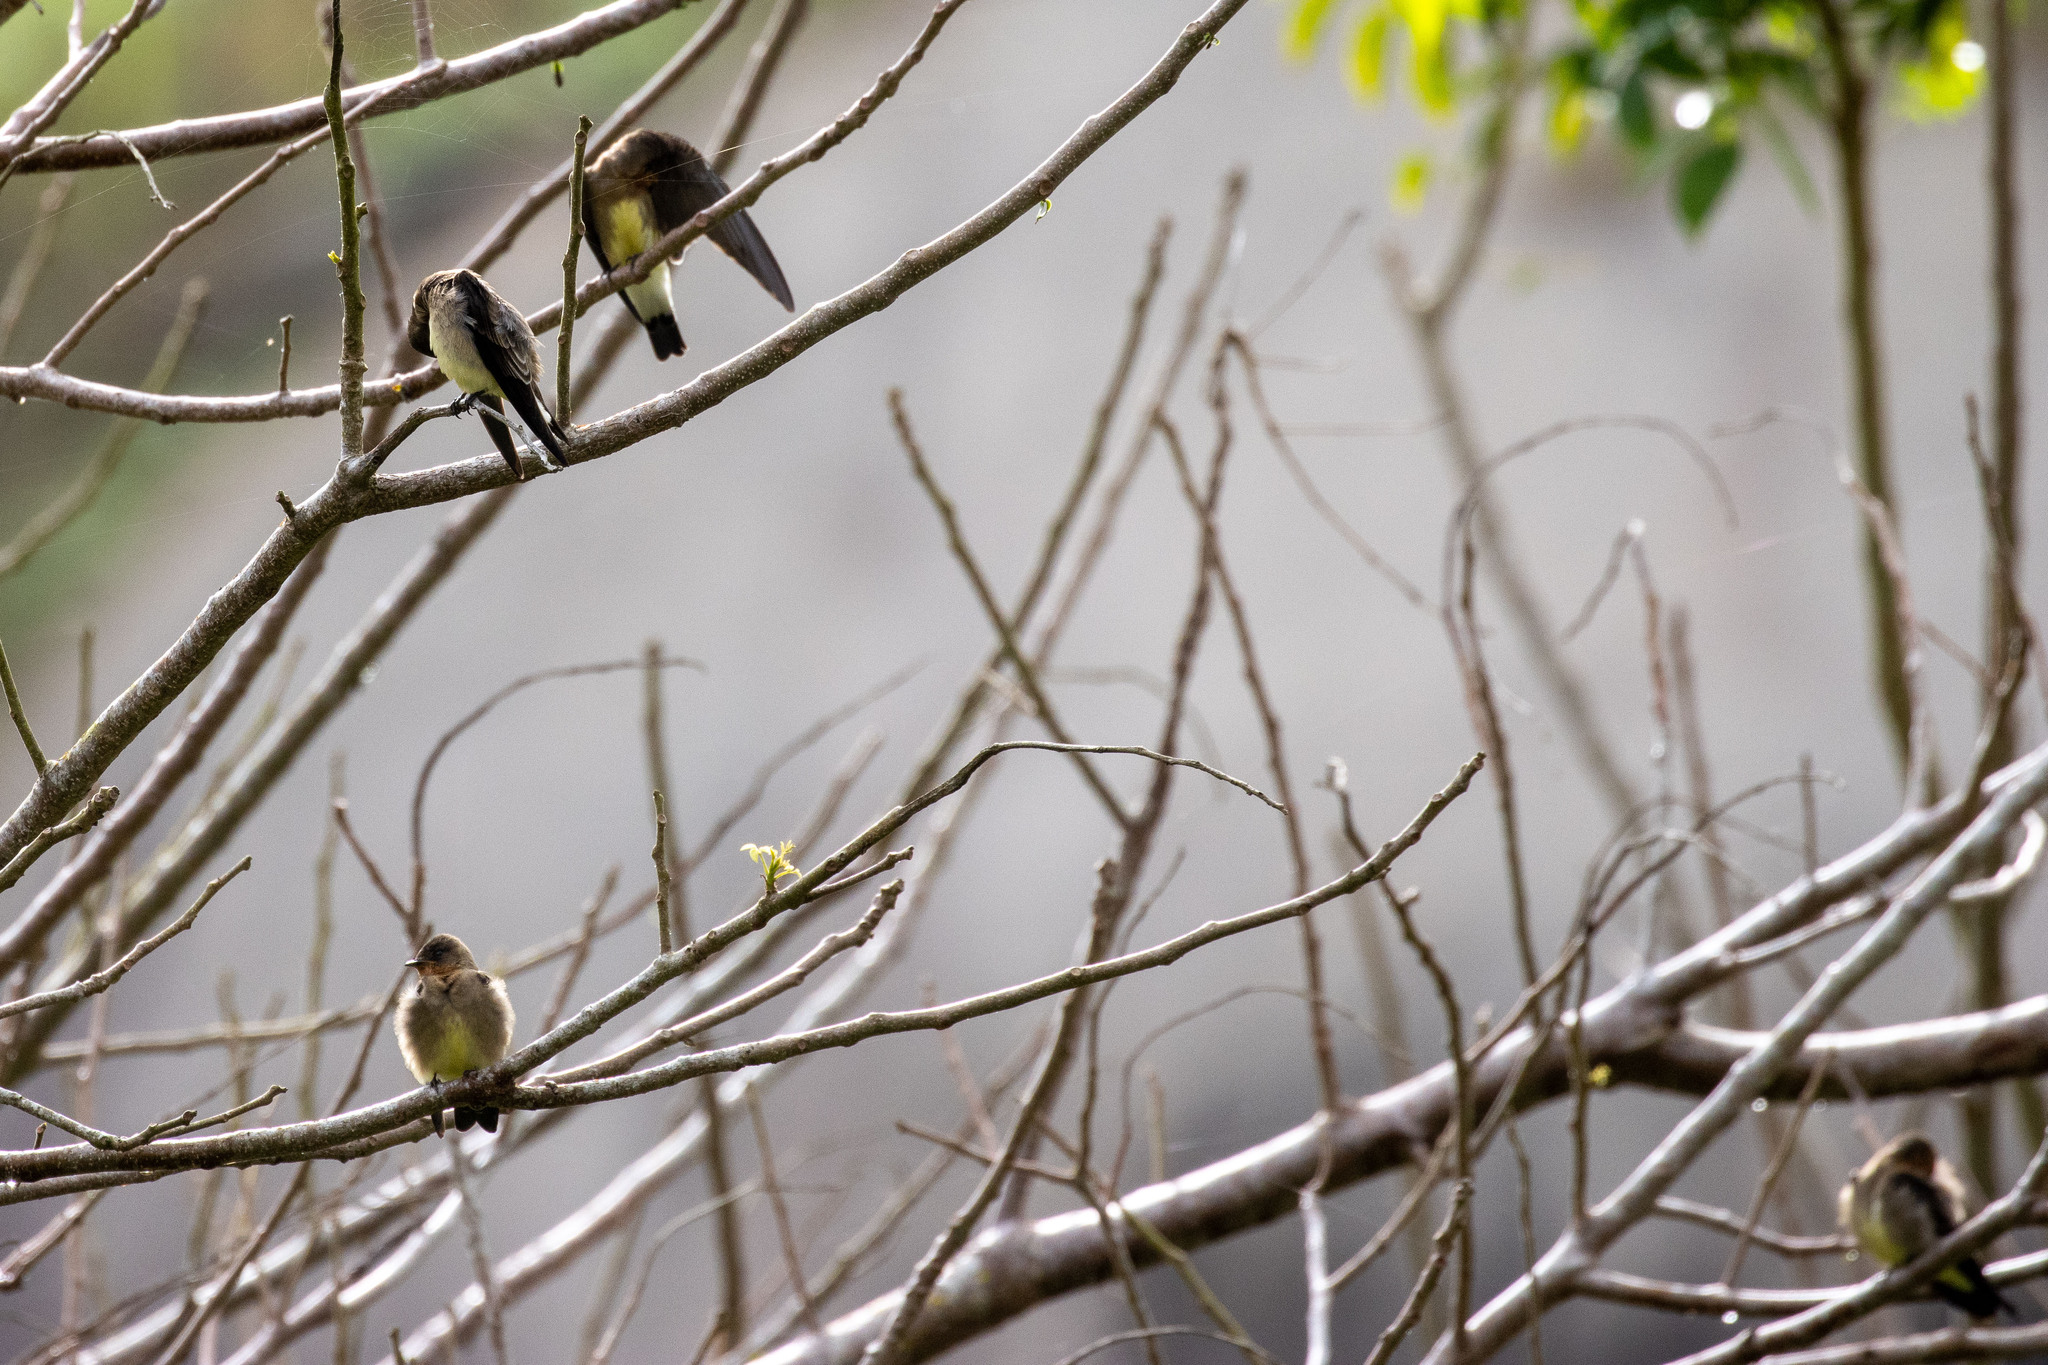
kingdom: Animalia
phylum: Chordata
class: Aves
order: Passeriformes
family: Hirundinidae
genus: Stelgidopteryx
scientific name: Stelgidopteryx ruficollis
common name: Southern rough-winged swallow
